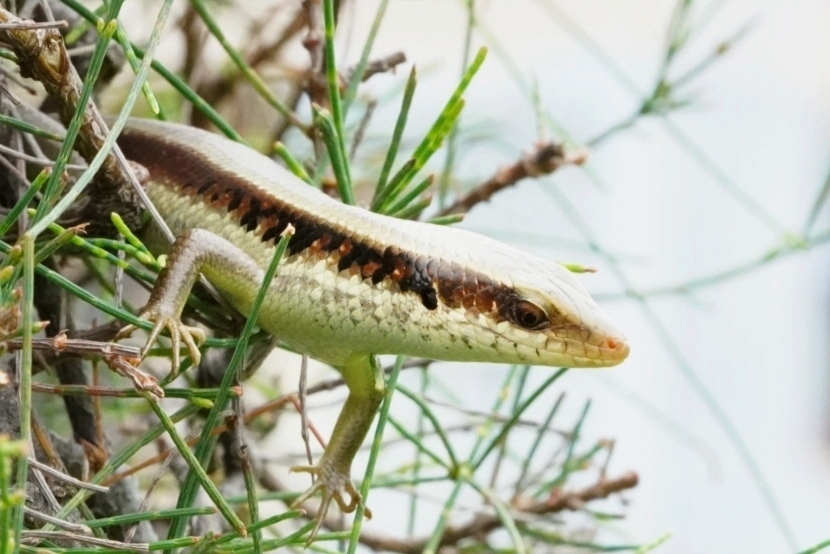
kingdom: Animalia
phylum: Chordata
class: Squamata
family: Scincidae
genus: Eutropis
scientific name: Eutropis longicaudata
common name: Long-tailed sun skink
